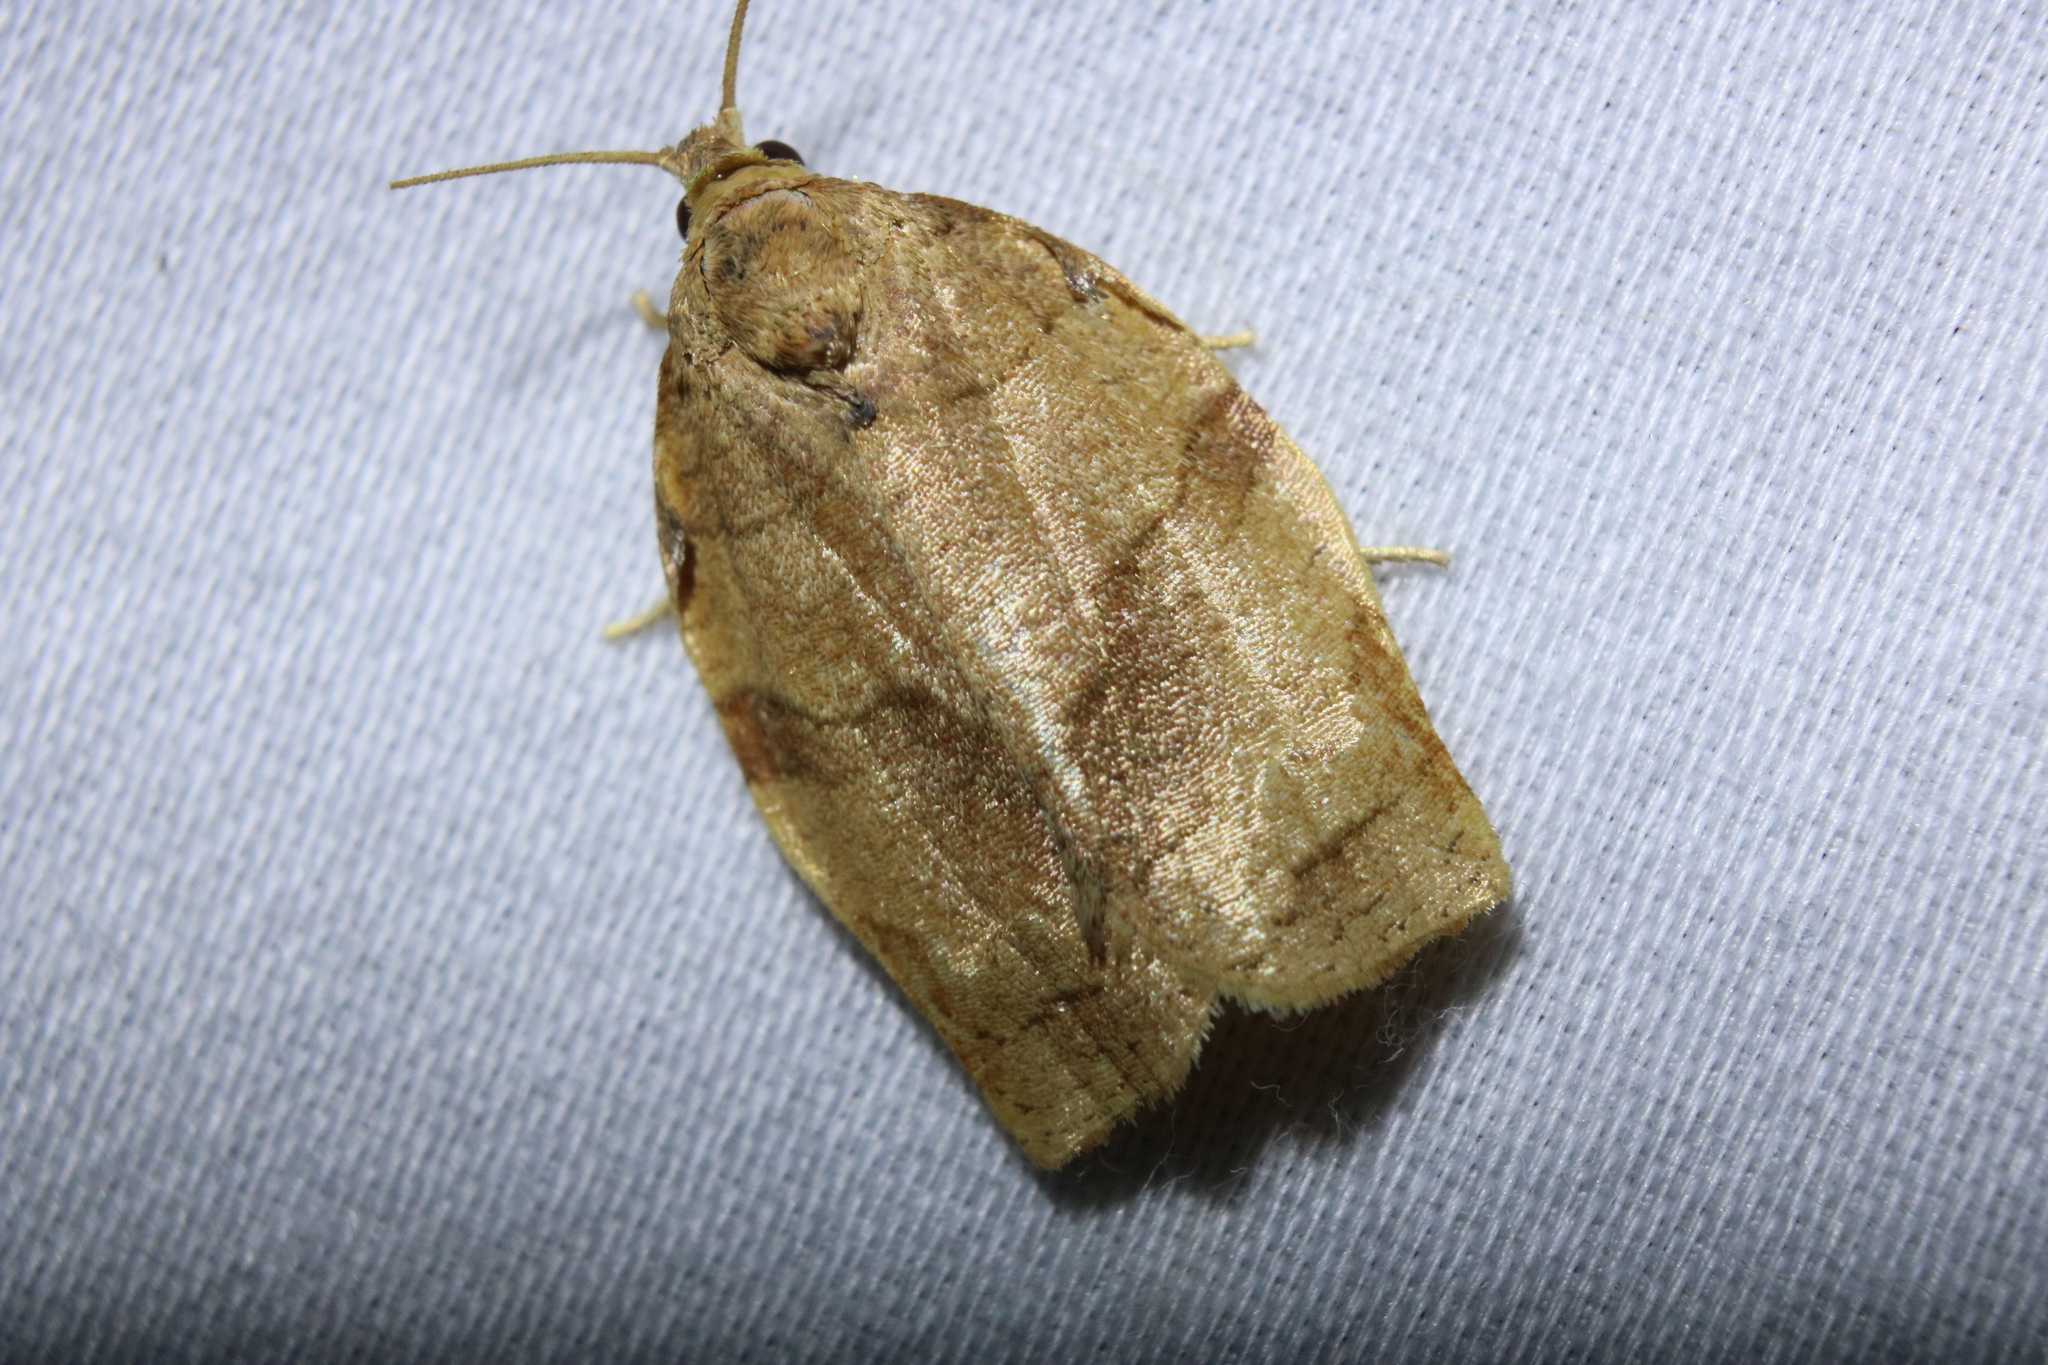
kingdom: Animalia
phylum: Arthropoda
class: Insecta
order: Lepidoptera
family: Tortricidae
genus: Choristoneura
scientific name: Choristoneura rosaceana
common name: Oblique-banded leafroller moth
